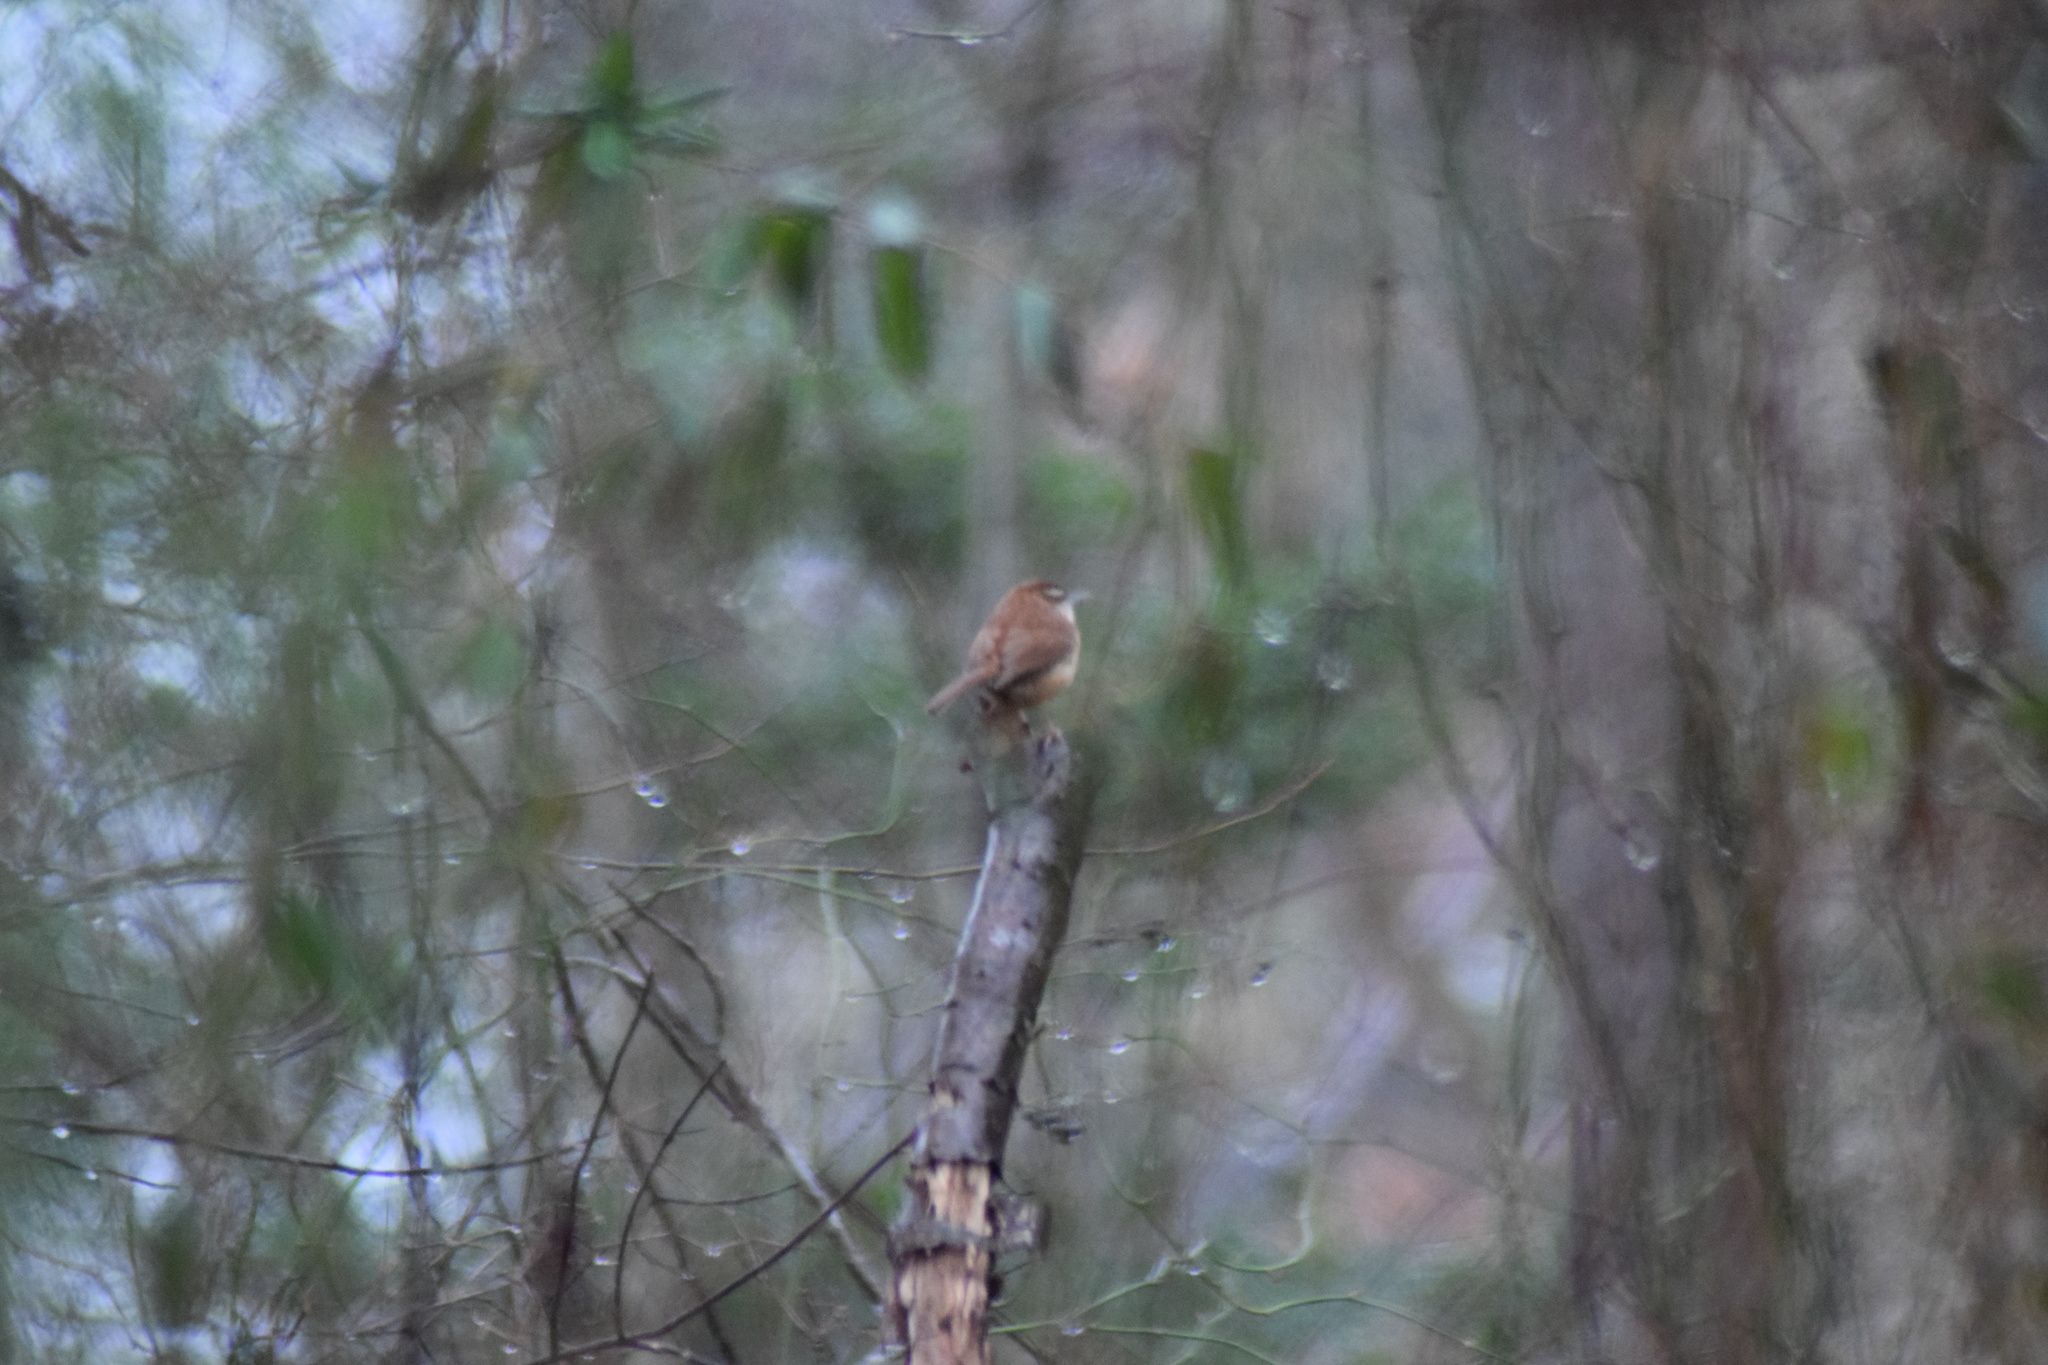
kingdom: Animalia
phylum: Chordata
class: Aves
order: Passeriformes
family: Troglodytidae
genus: Thryothorus
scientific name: Thryothorus ludovicianus
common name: Carolina wren
